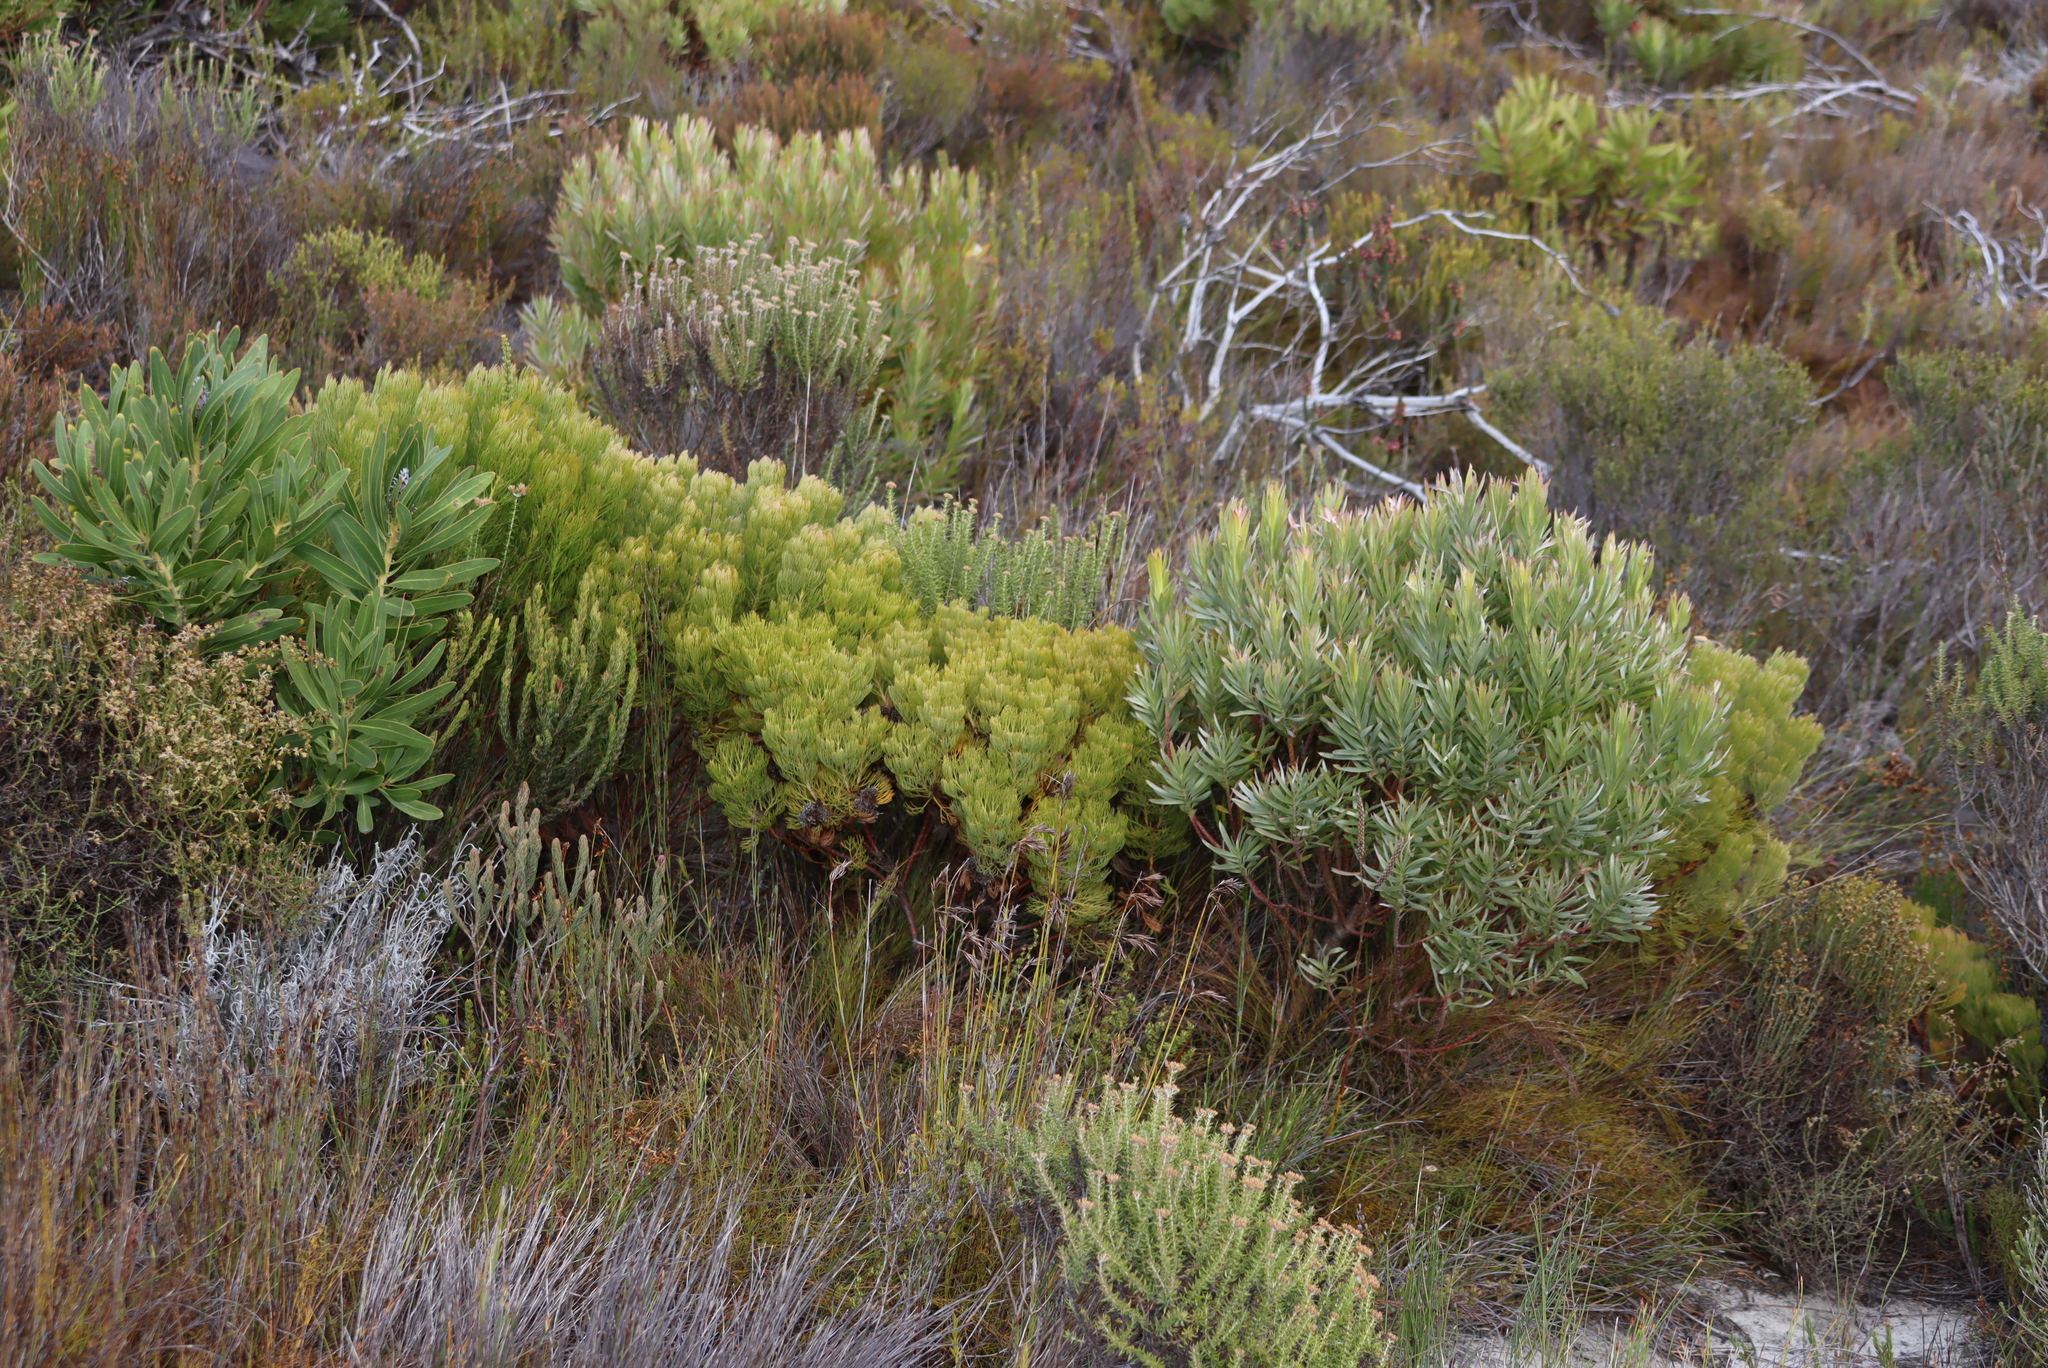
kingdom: Plantae
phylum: Tracheophyta
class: Magnoliopsida
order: Proteales
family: Proteaceae
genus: Leucadendron
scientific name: Leucadendron xanthoconus
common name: Sickle-leaf conebush
